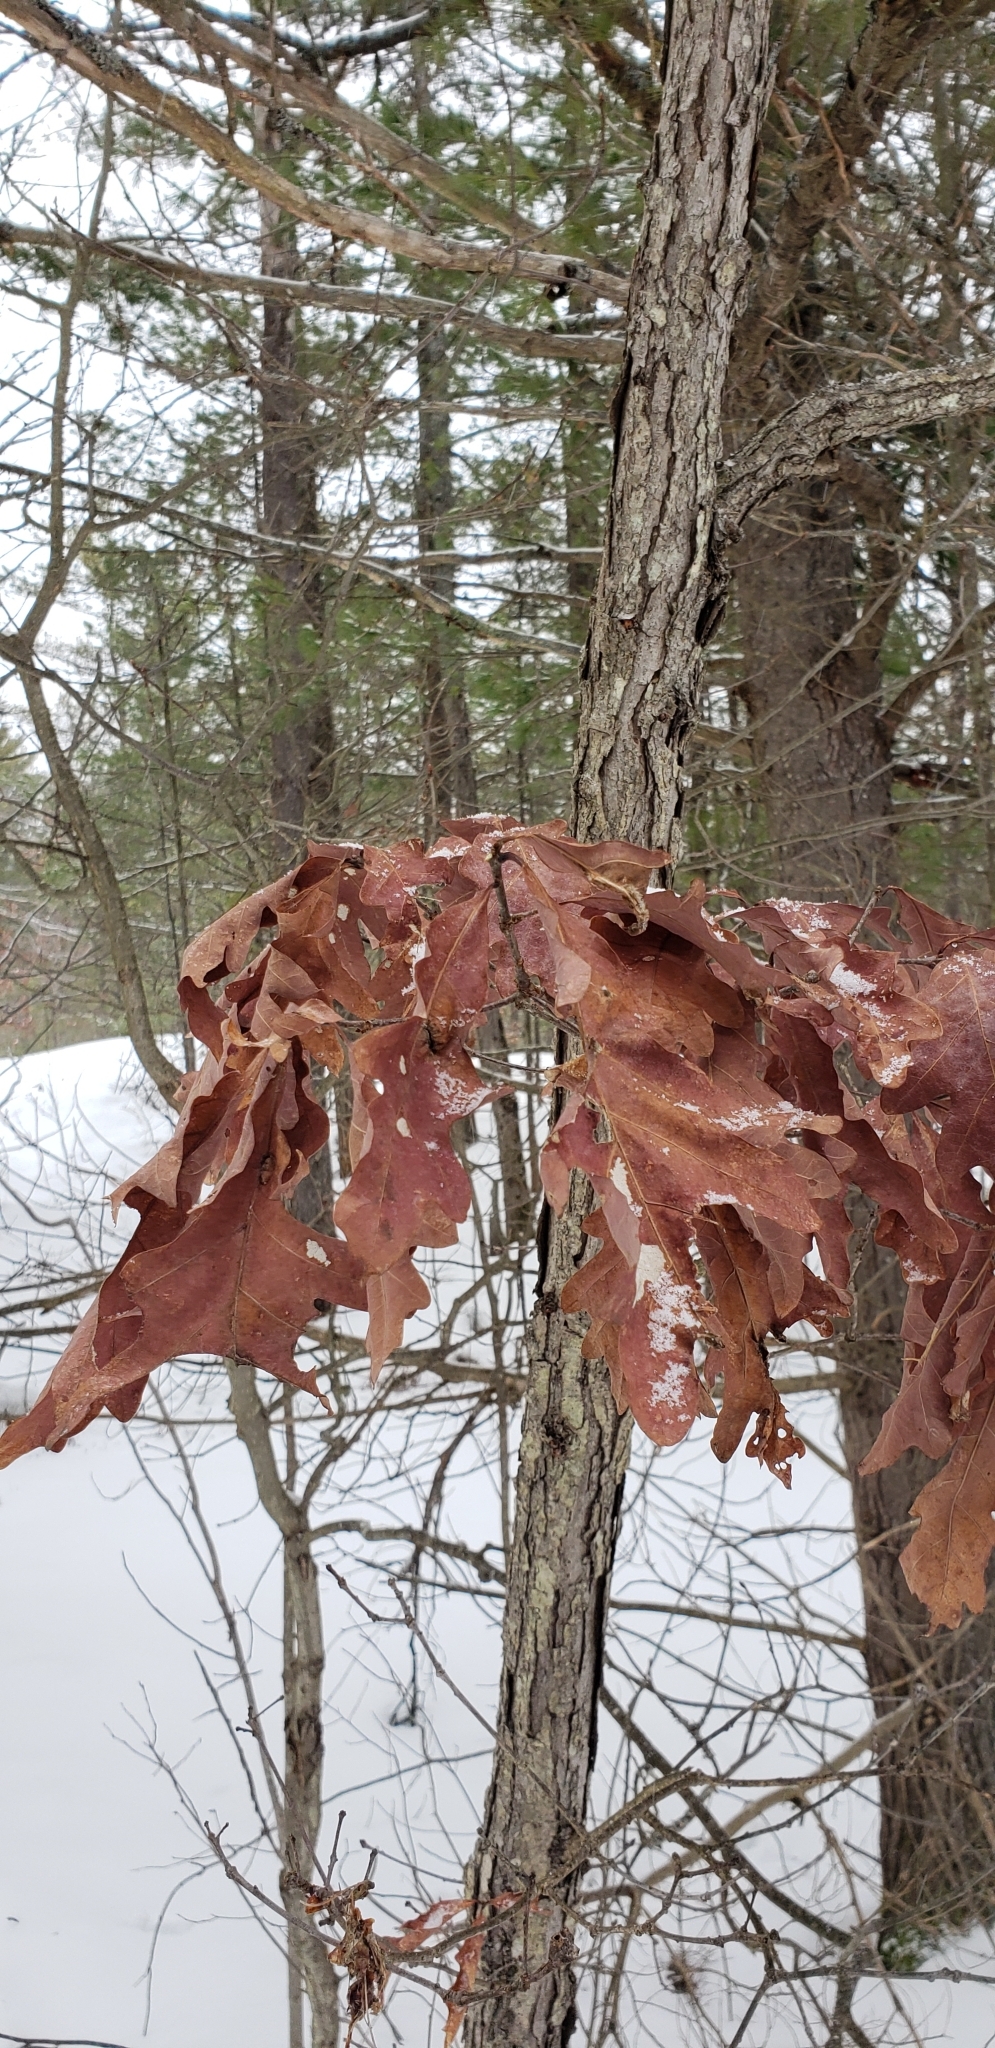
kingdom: Plantae
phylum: Tracheophyta
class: Magnoliopsida
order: Fagales
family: Fagaceae
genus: Quercus
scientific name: Quercus alba
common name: White oak
